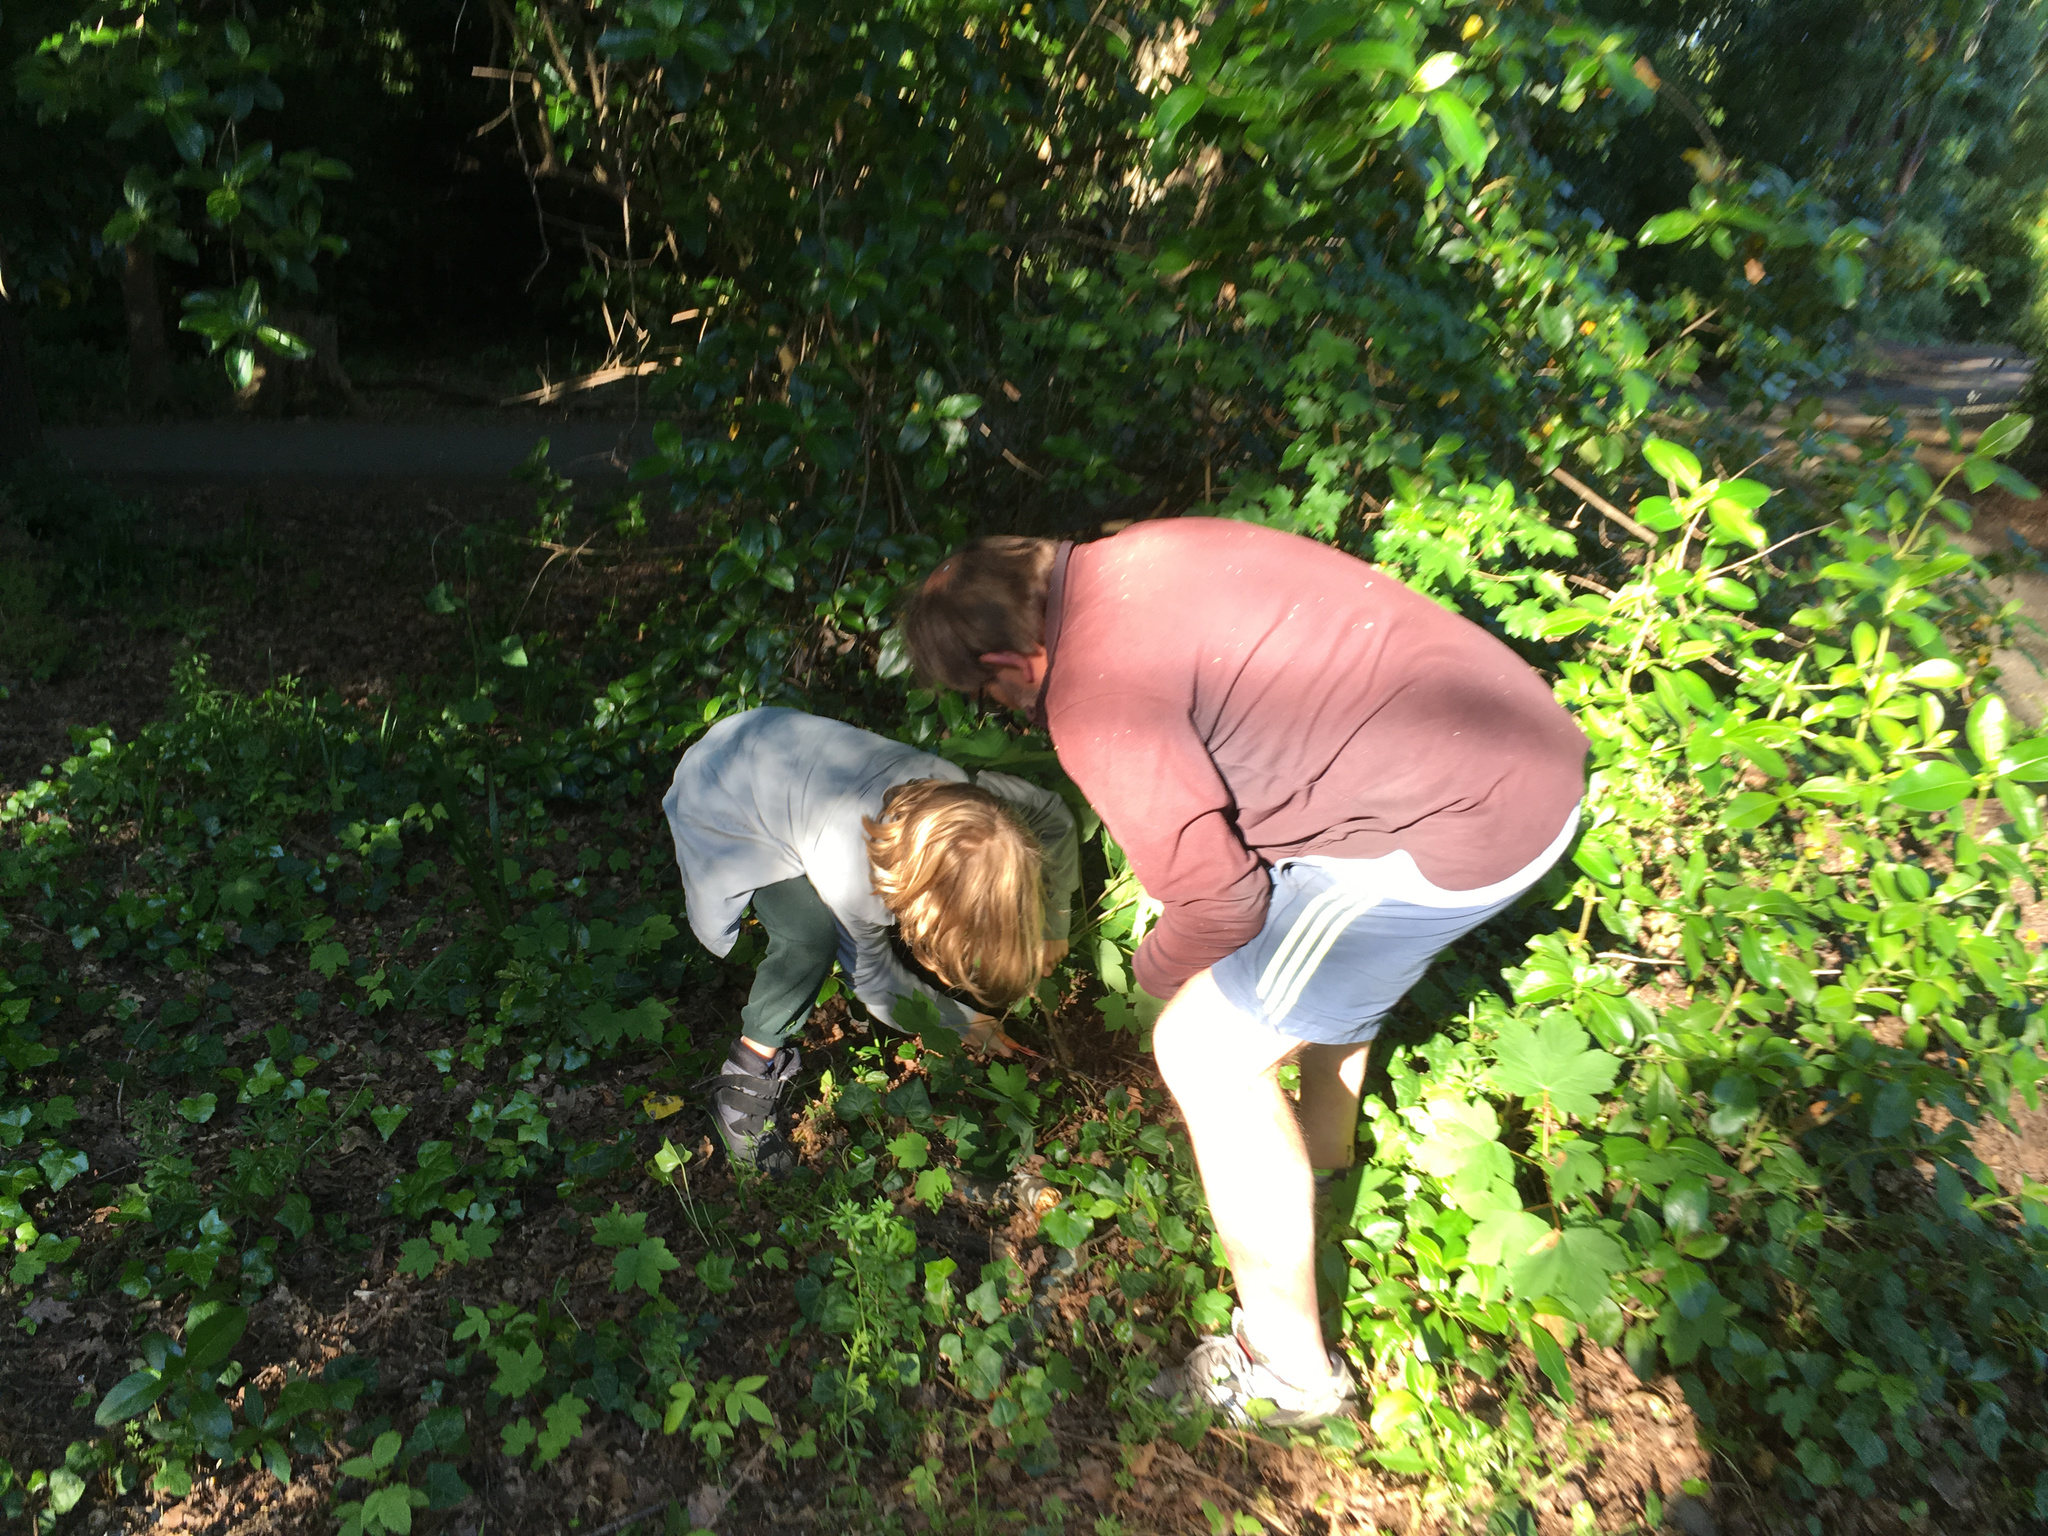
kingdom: Plantae
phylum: Tracheophyta
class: Magnoliopsida
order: Sapindales
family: Sapindaceae
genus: Acer
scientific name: Acer pseudoplatanus
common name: Sycamore
